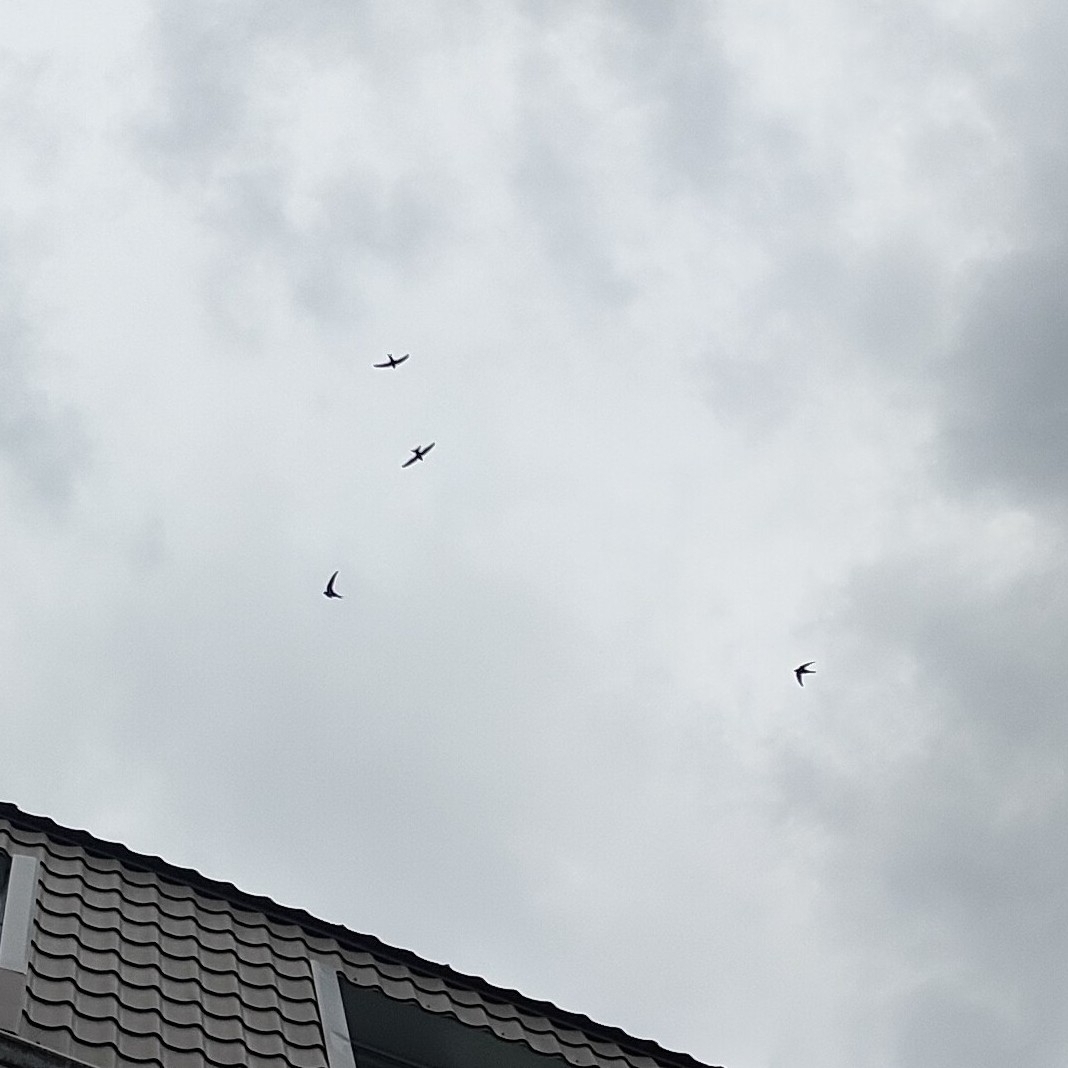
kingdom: Animalia
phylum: Chordata
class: Aves
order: Apodiformes
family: Apodidae
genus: Apus
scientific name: Apus apus
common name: Common swift
